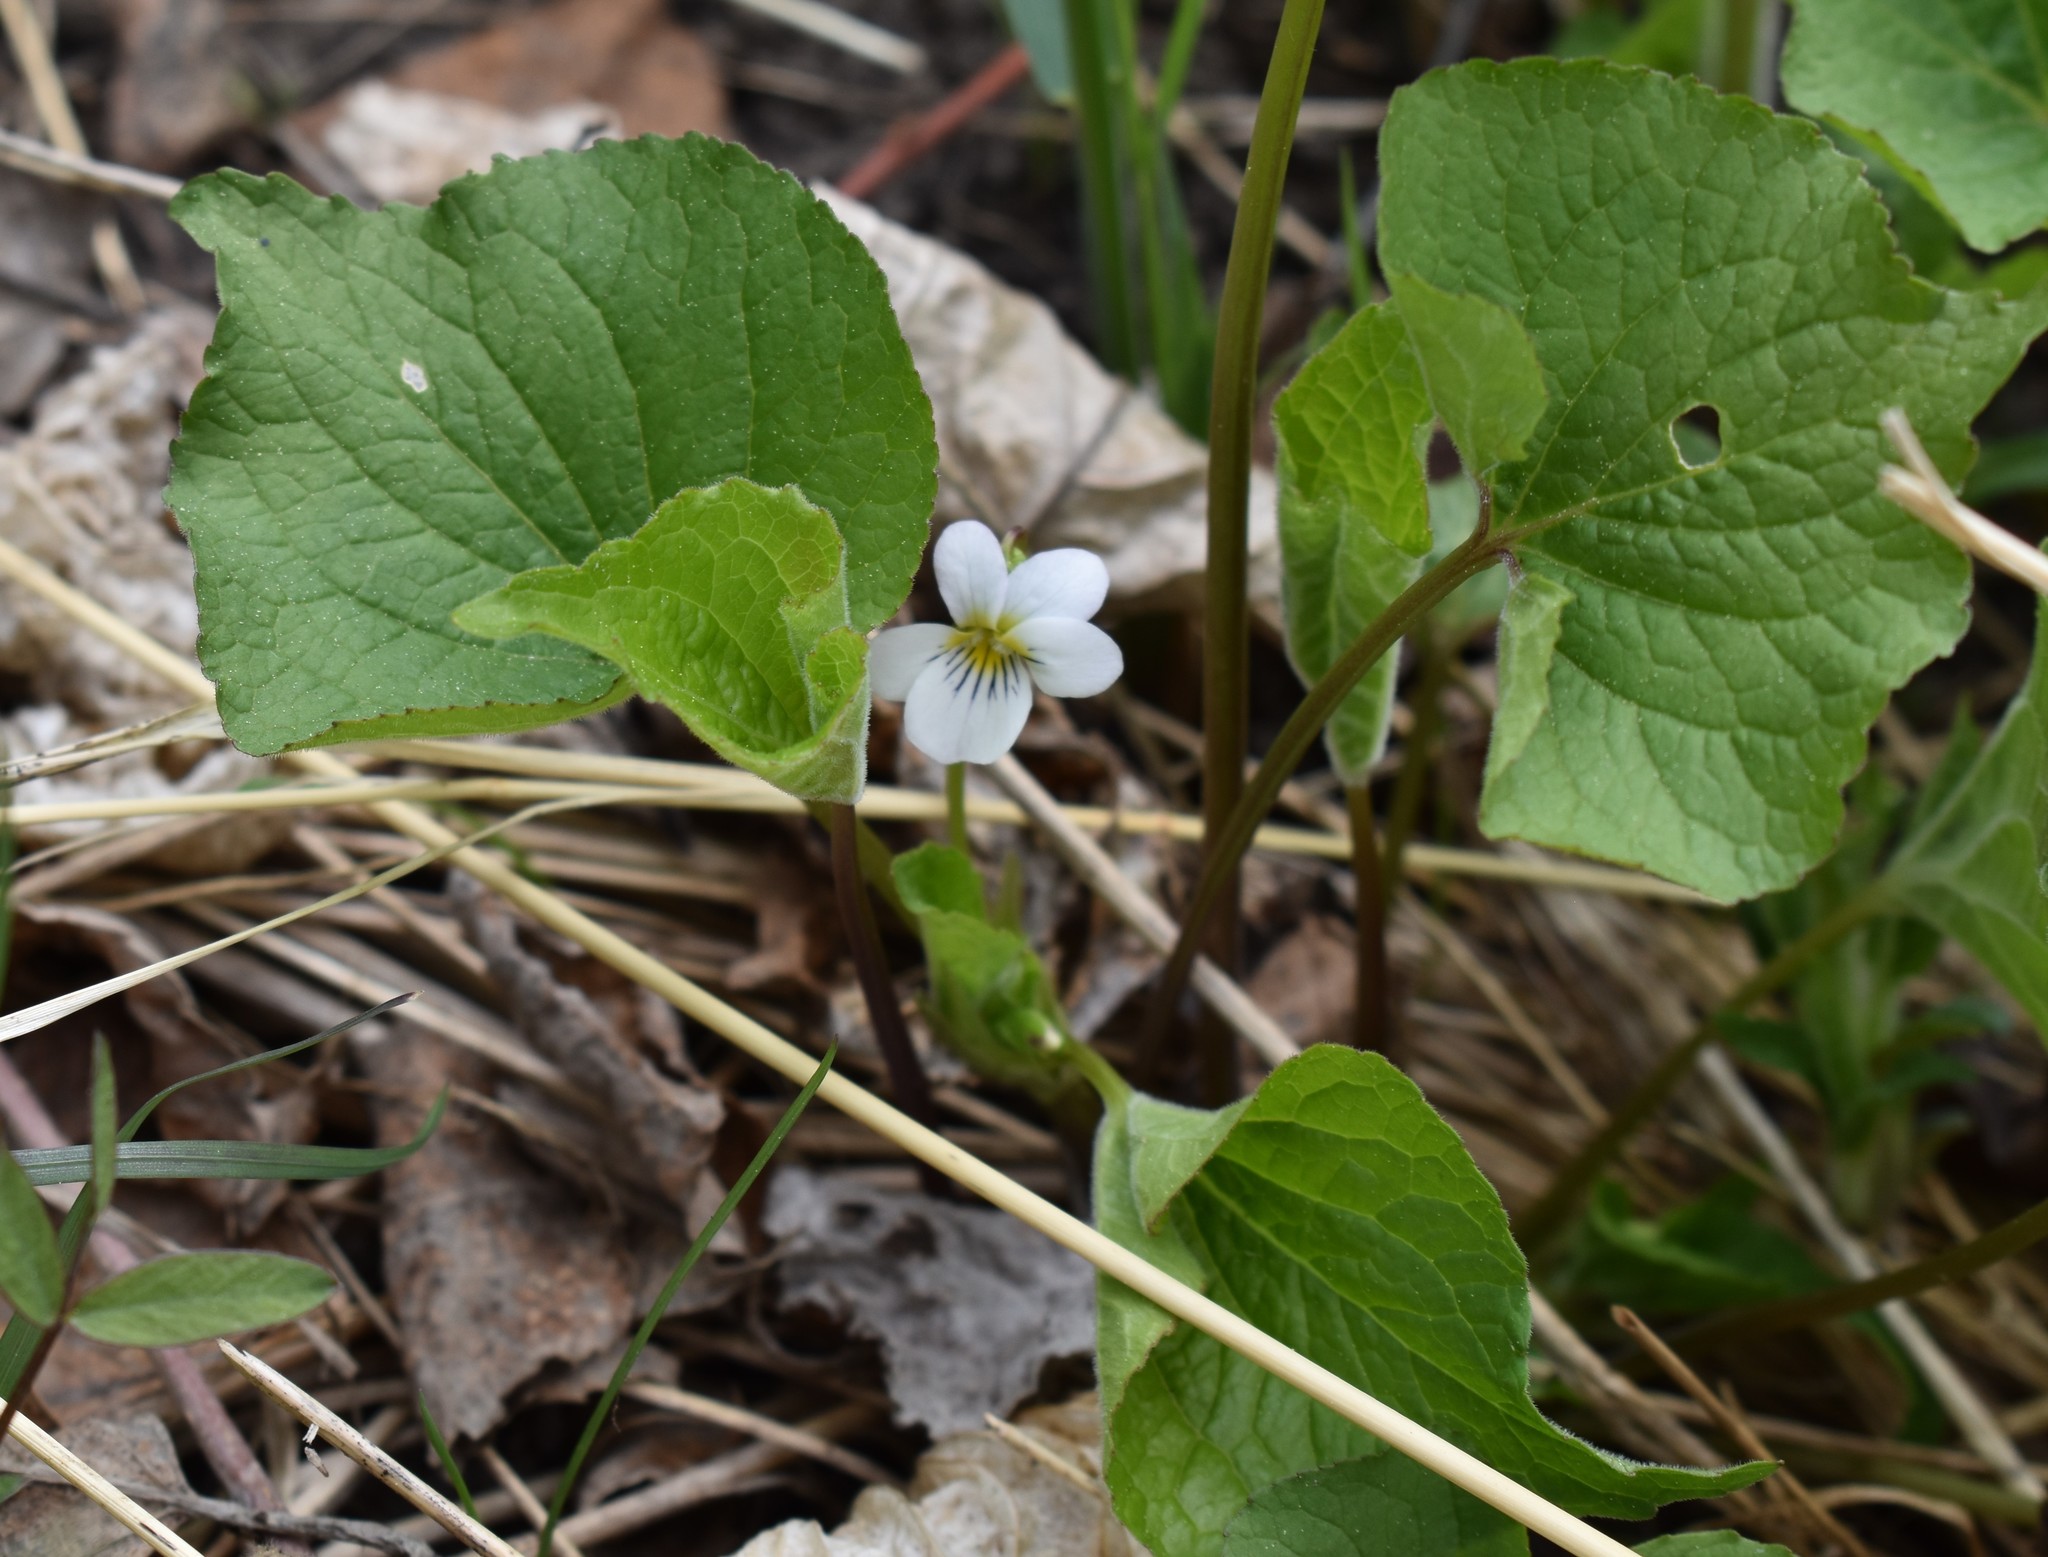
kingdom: Plantae
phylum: Tracheophyta
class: Magnoliopsida
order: Malpighiales
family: Violaceae
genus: Viola
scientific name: Viola canadensis
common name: Canada violet
